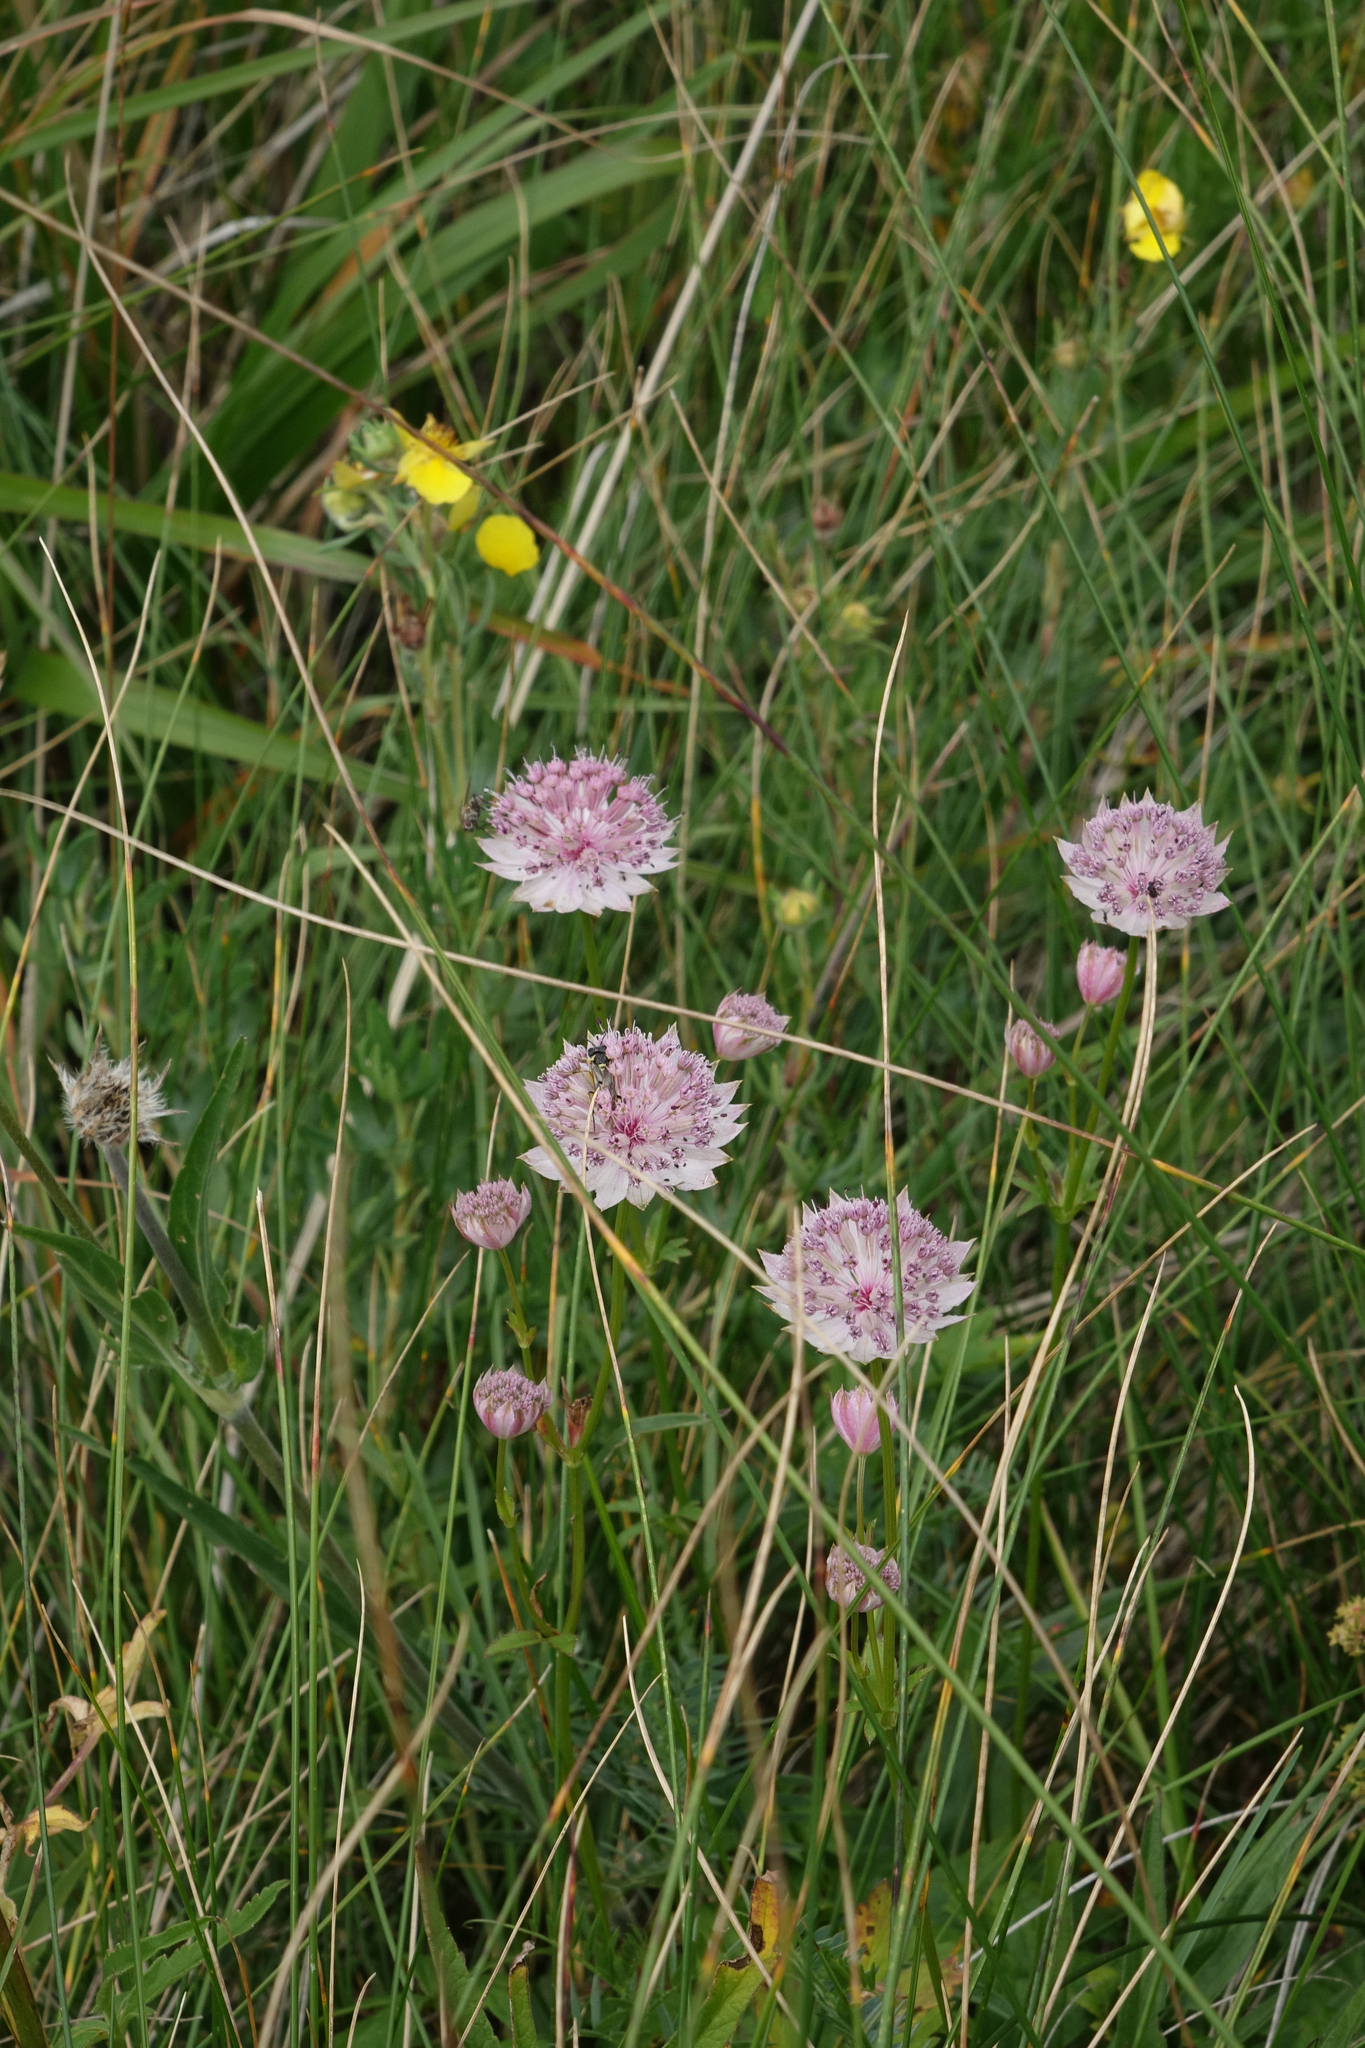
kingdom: Plantae
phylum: Tracheophyta
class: Magnoliopsida
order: Apiales
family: Apiaceae
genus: Astrantia
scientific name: Astrantia trifida
